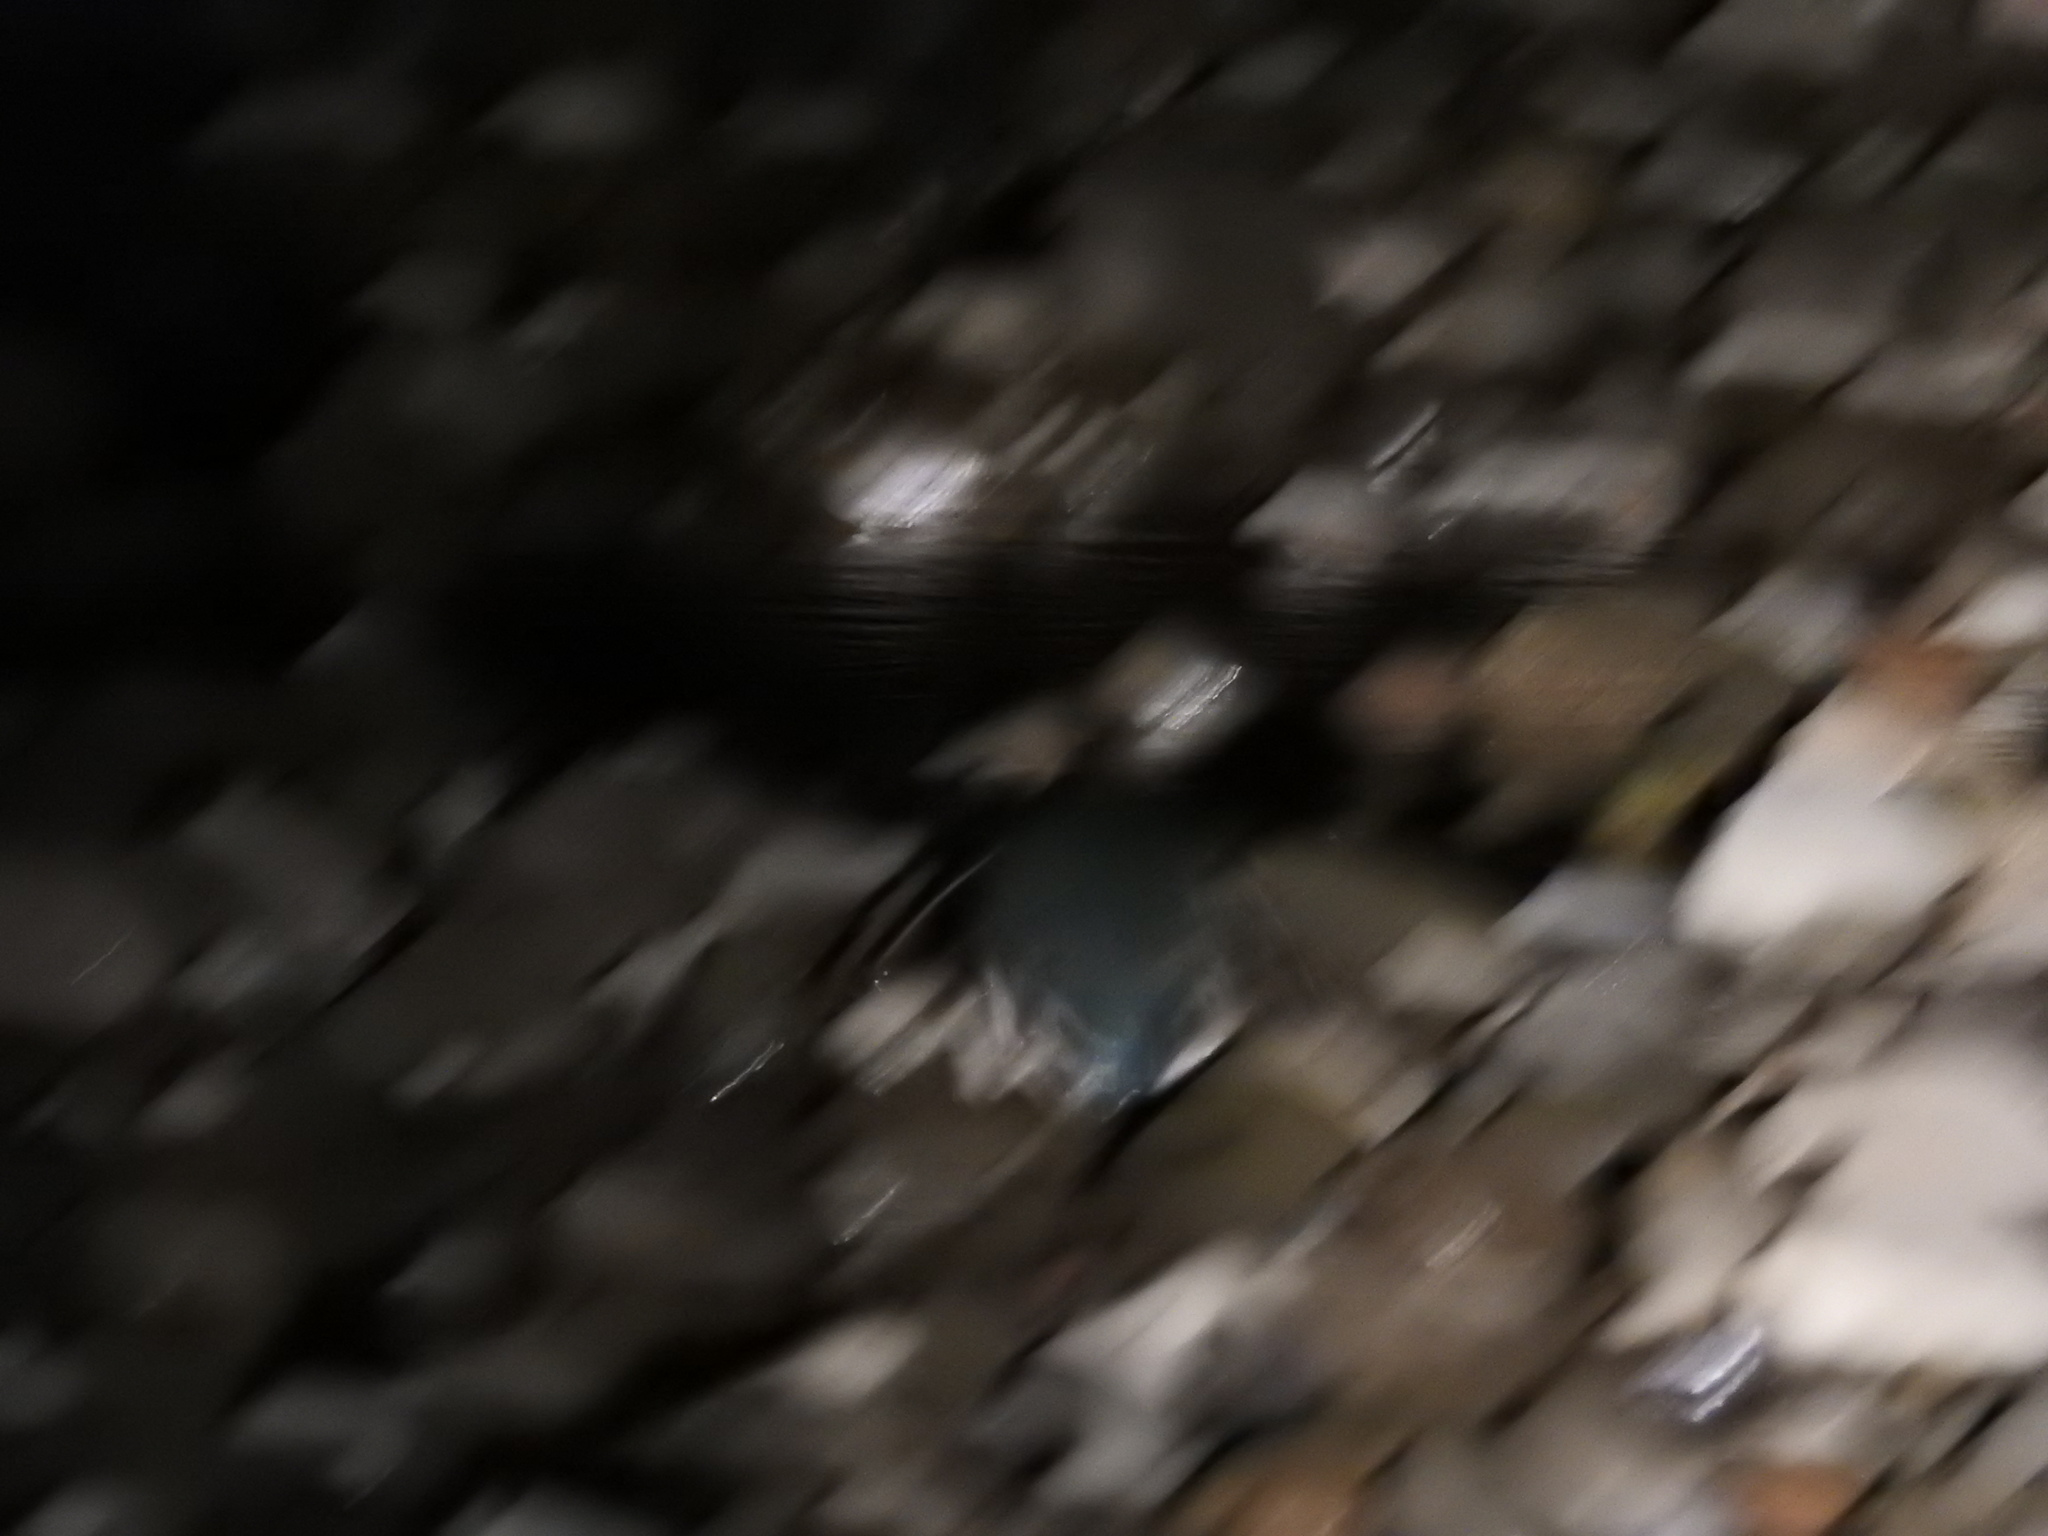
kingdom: Animalia
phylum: Chordata
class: Aves
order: Sphenisciformes
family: Spheniscidae
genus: Eudyptula
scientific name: Eudyptula minor
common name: Little penguin
